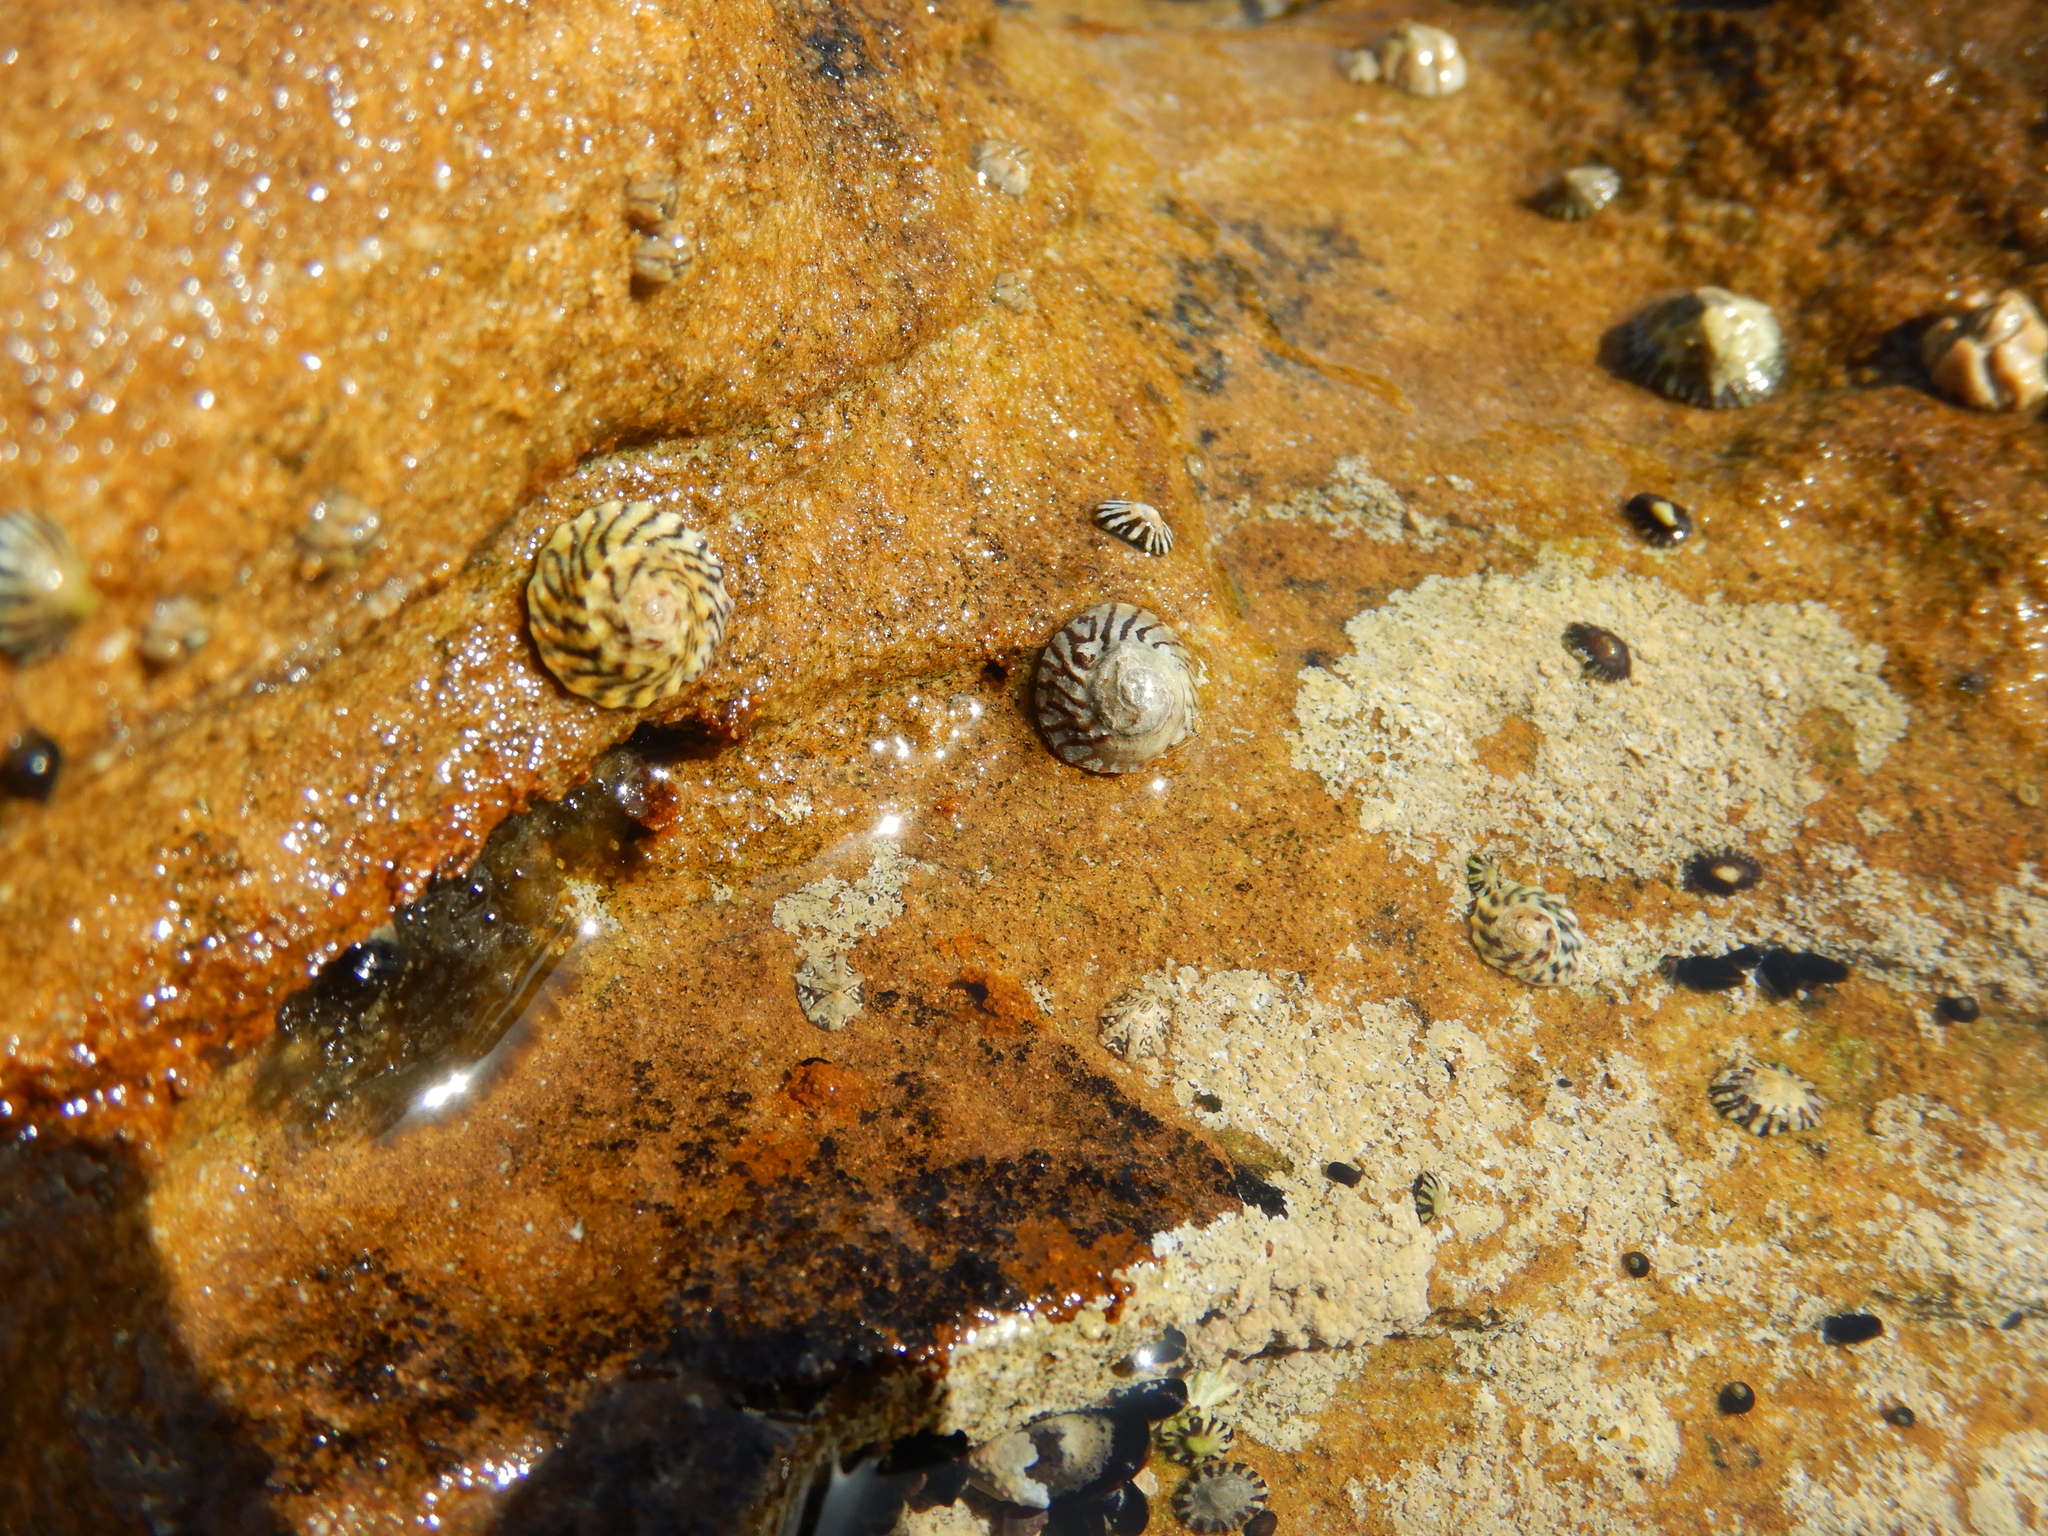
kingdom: Animalia
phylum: Mollusca
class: Gastropoda
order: Littorinimorpha
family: Littorinidae
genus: Bembicium
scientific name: Bembicium nanum
